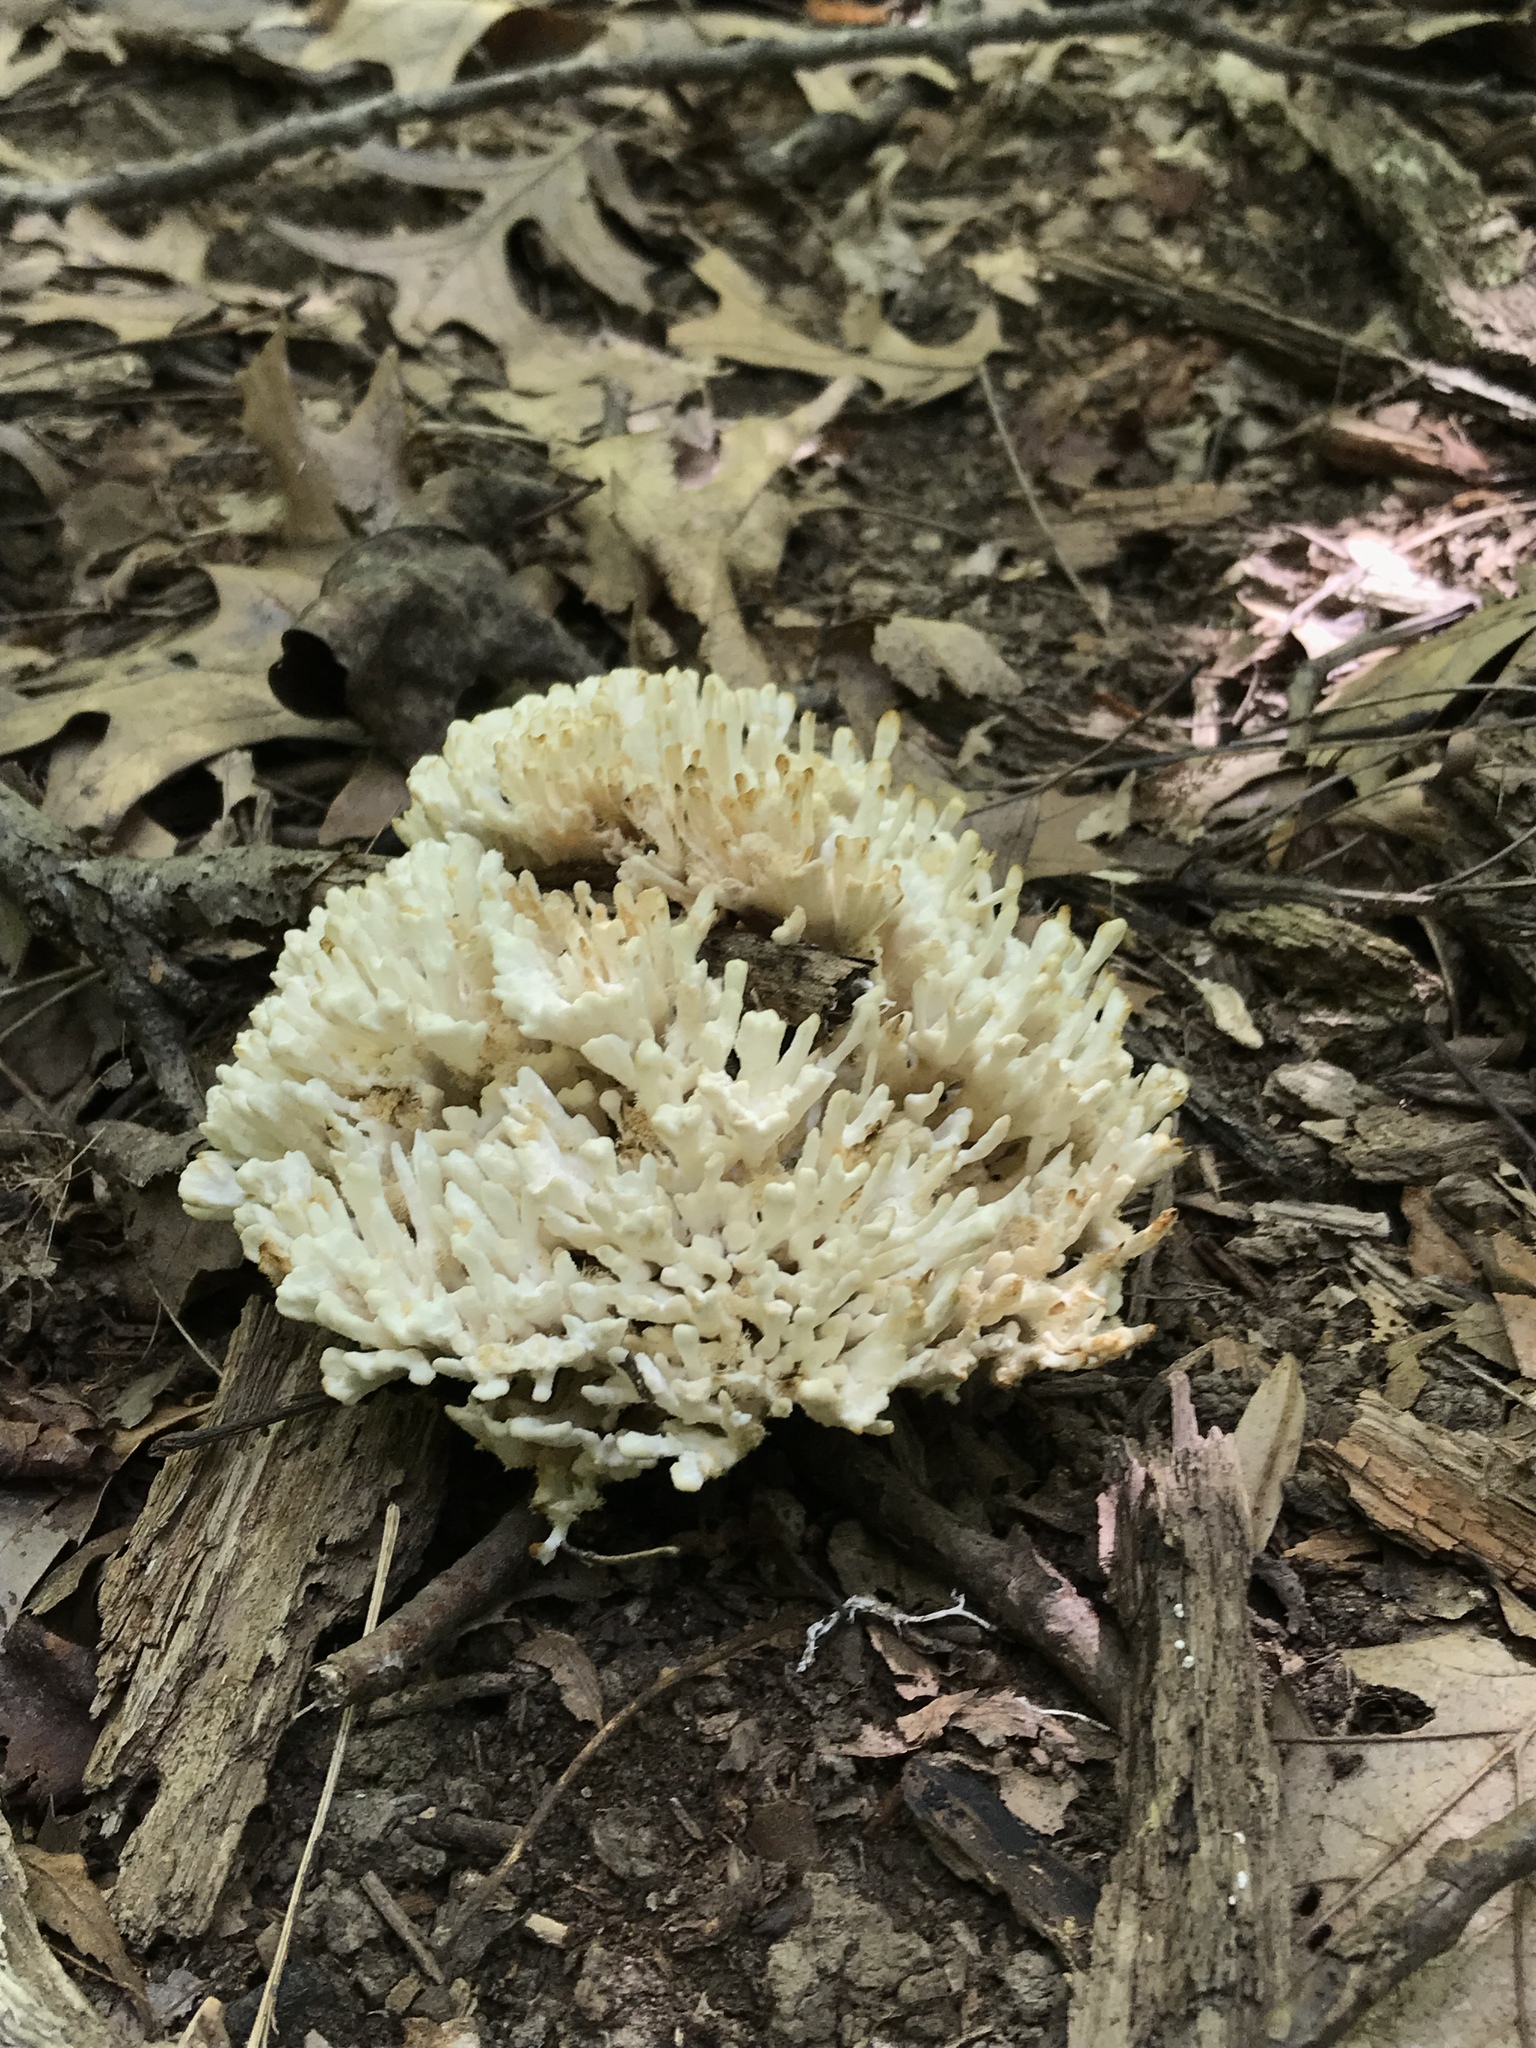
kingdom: Fungi
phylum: Basidiomycota
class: Agaricomycetes
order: Sebacinales
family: Sebacinaceae
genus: Sebacina
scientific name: Sebacina schweinitzii
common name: Jellied false coral fungus
